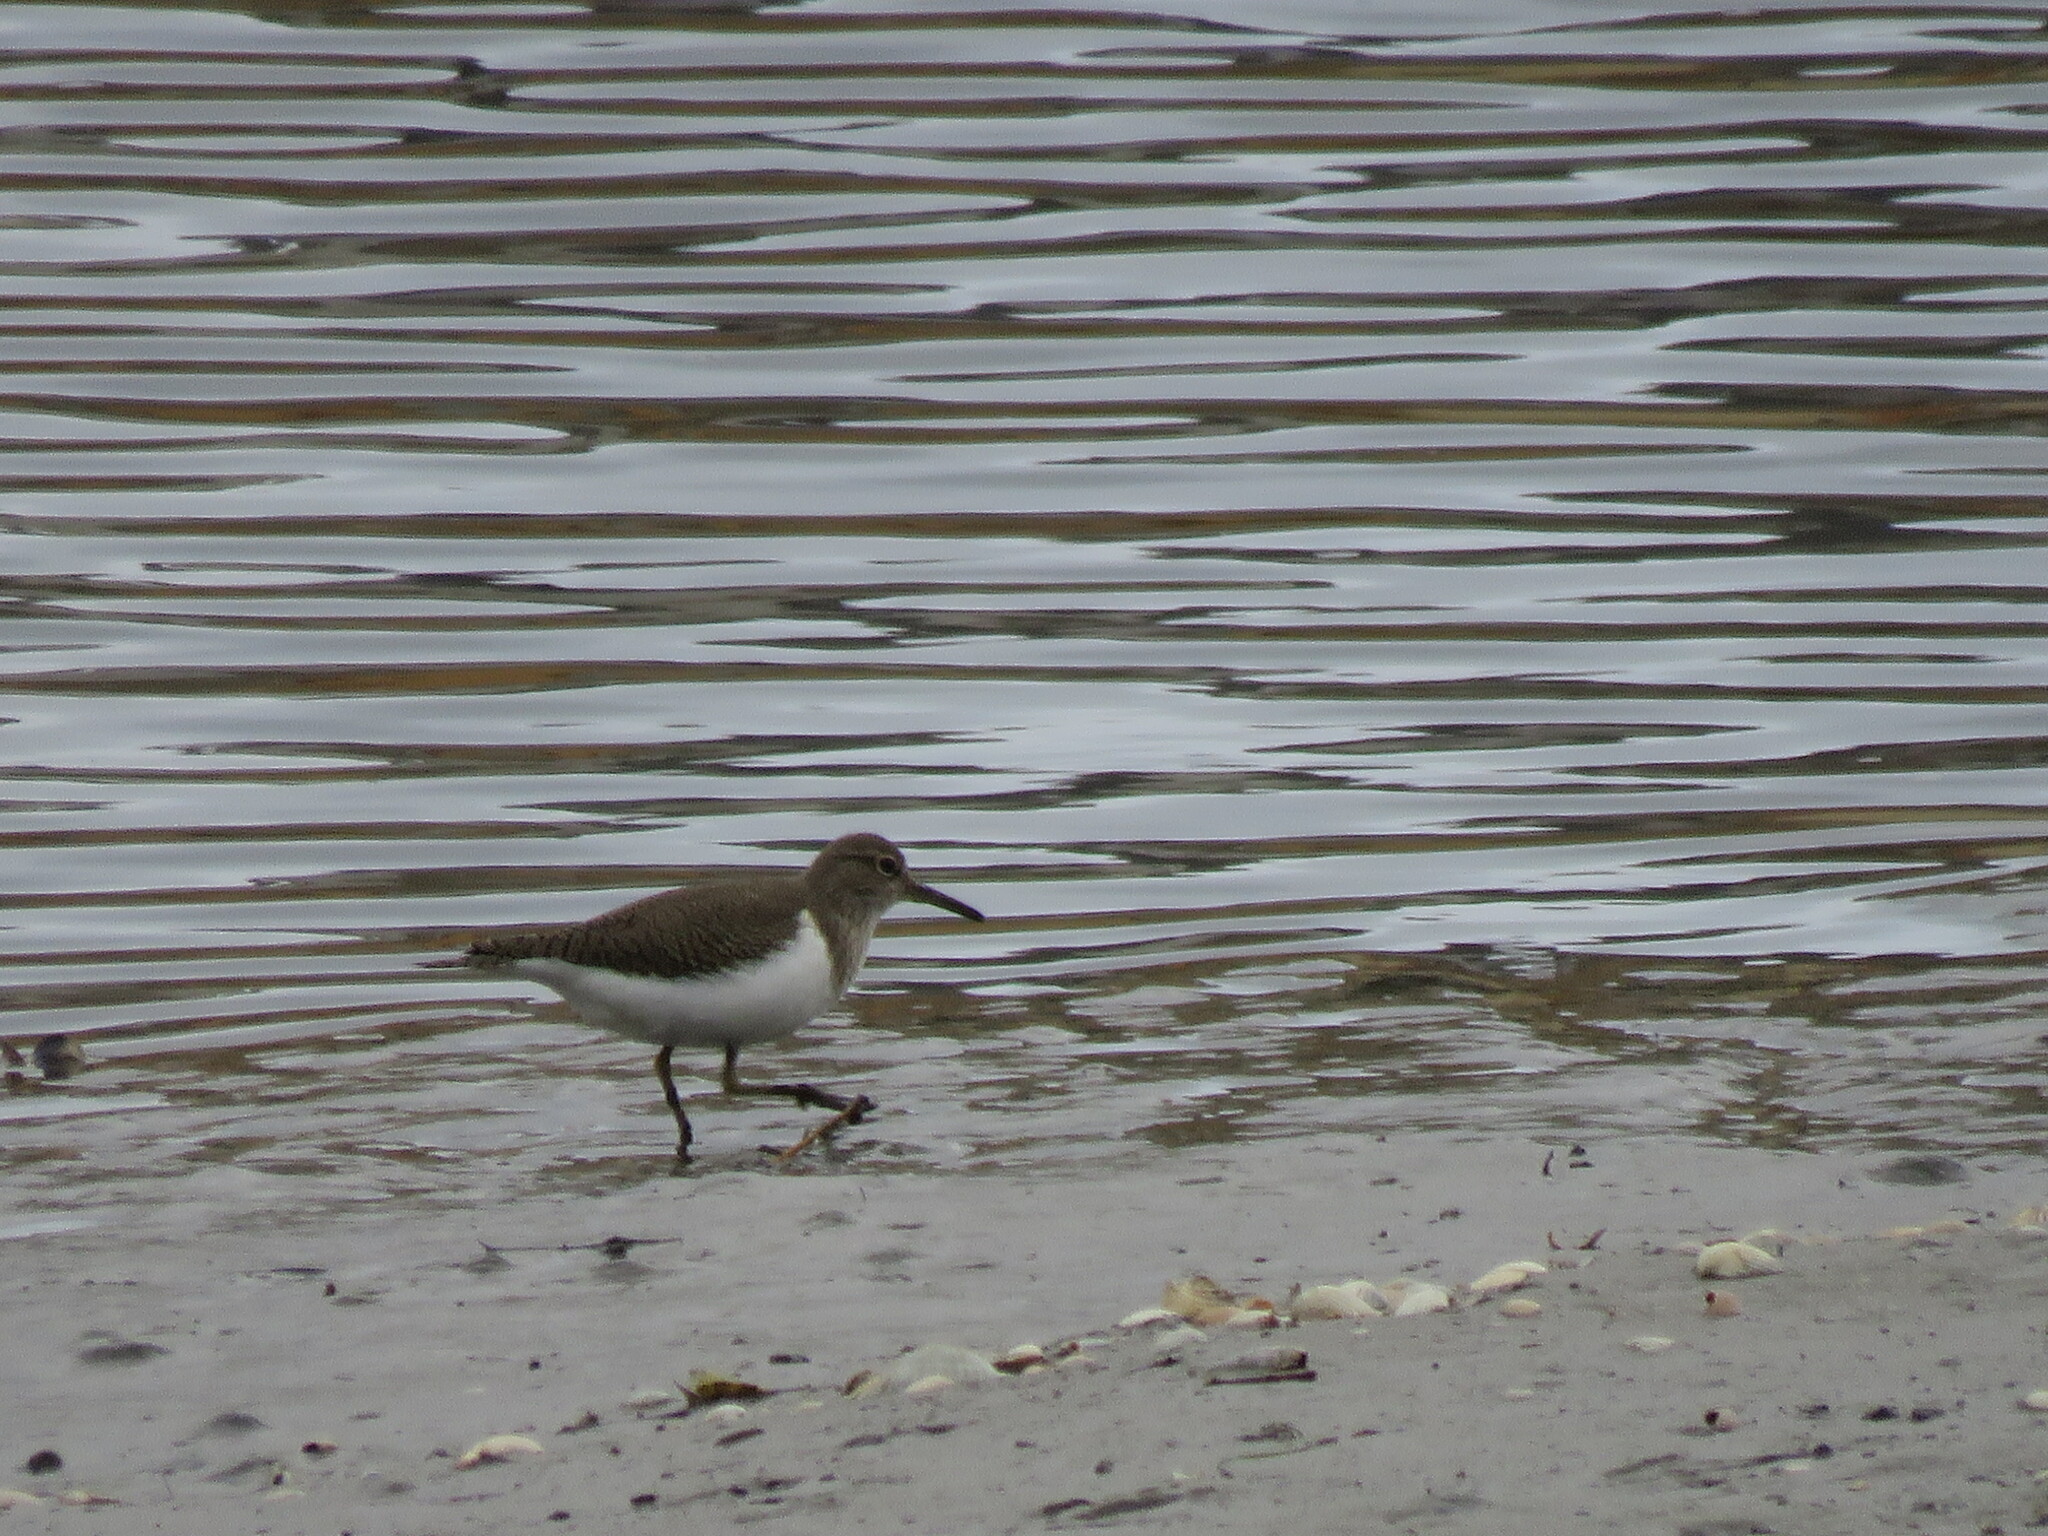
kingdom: Animalia
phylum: Chordata
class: Aves
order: Charadriiformes
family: Scolopacidae
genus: Actitis
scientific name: Actitis hypoleucos
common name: Common sandpiper
